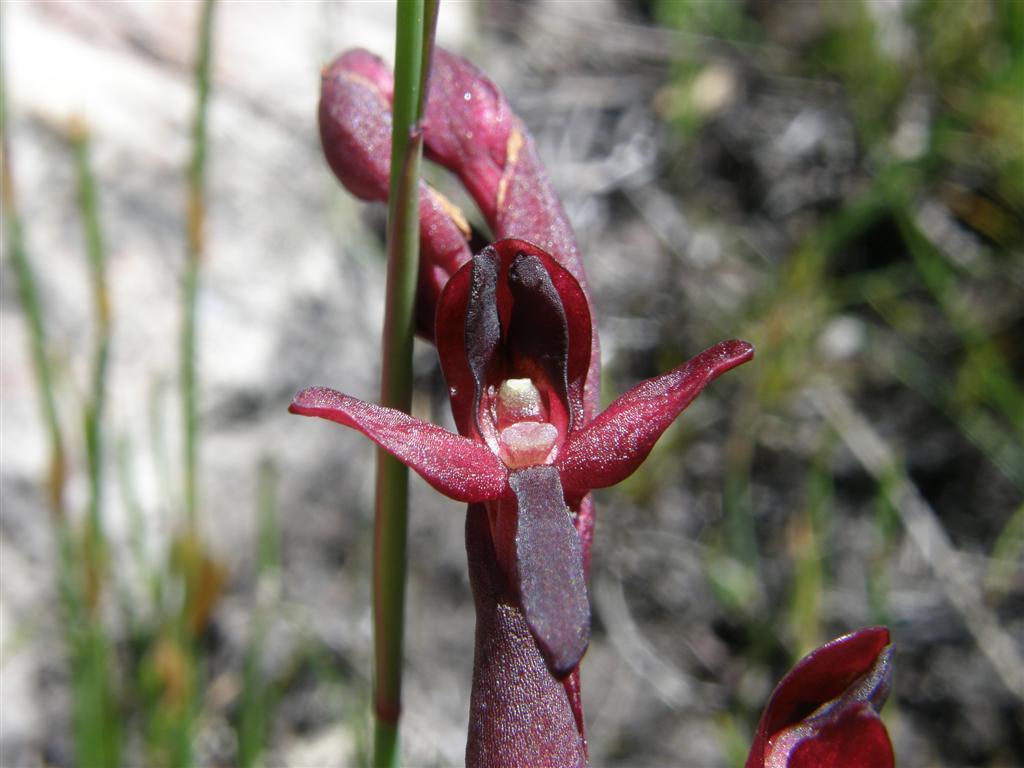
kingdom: Plantae
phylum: Tracheophyta
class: Liliopsida
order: Asparagales
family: Orchidaceae
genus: Disa
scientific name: Disa ophrydea
